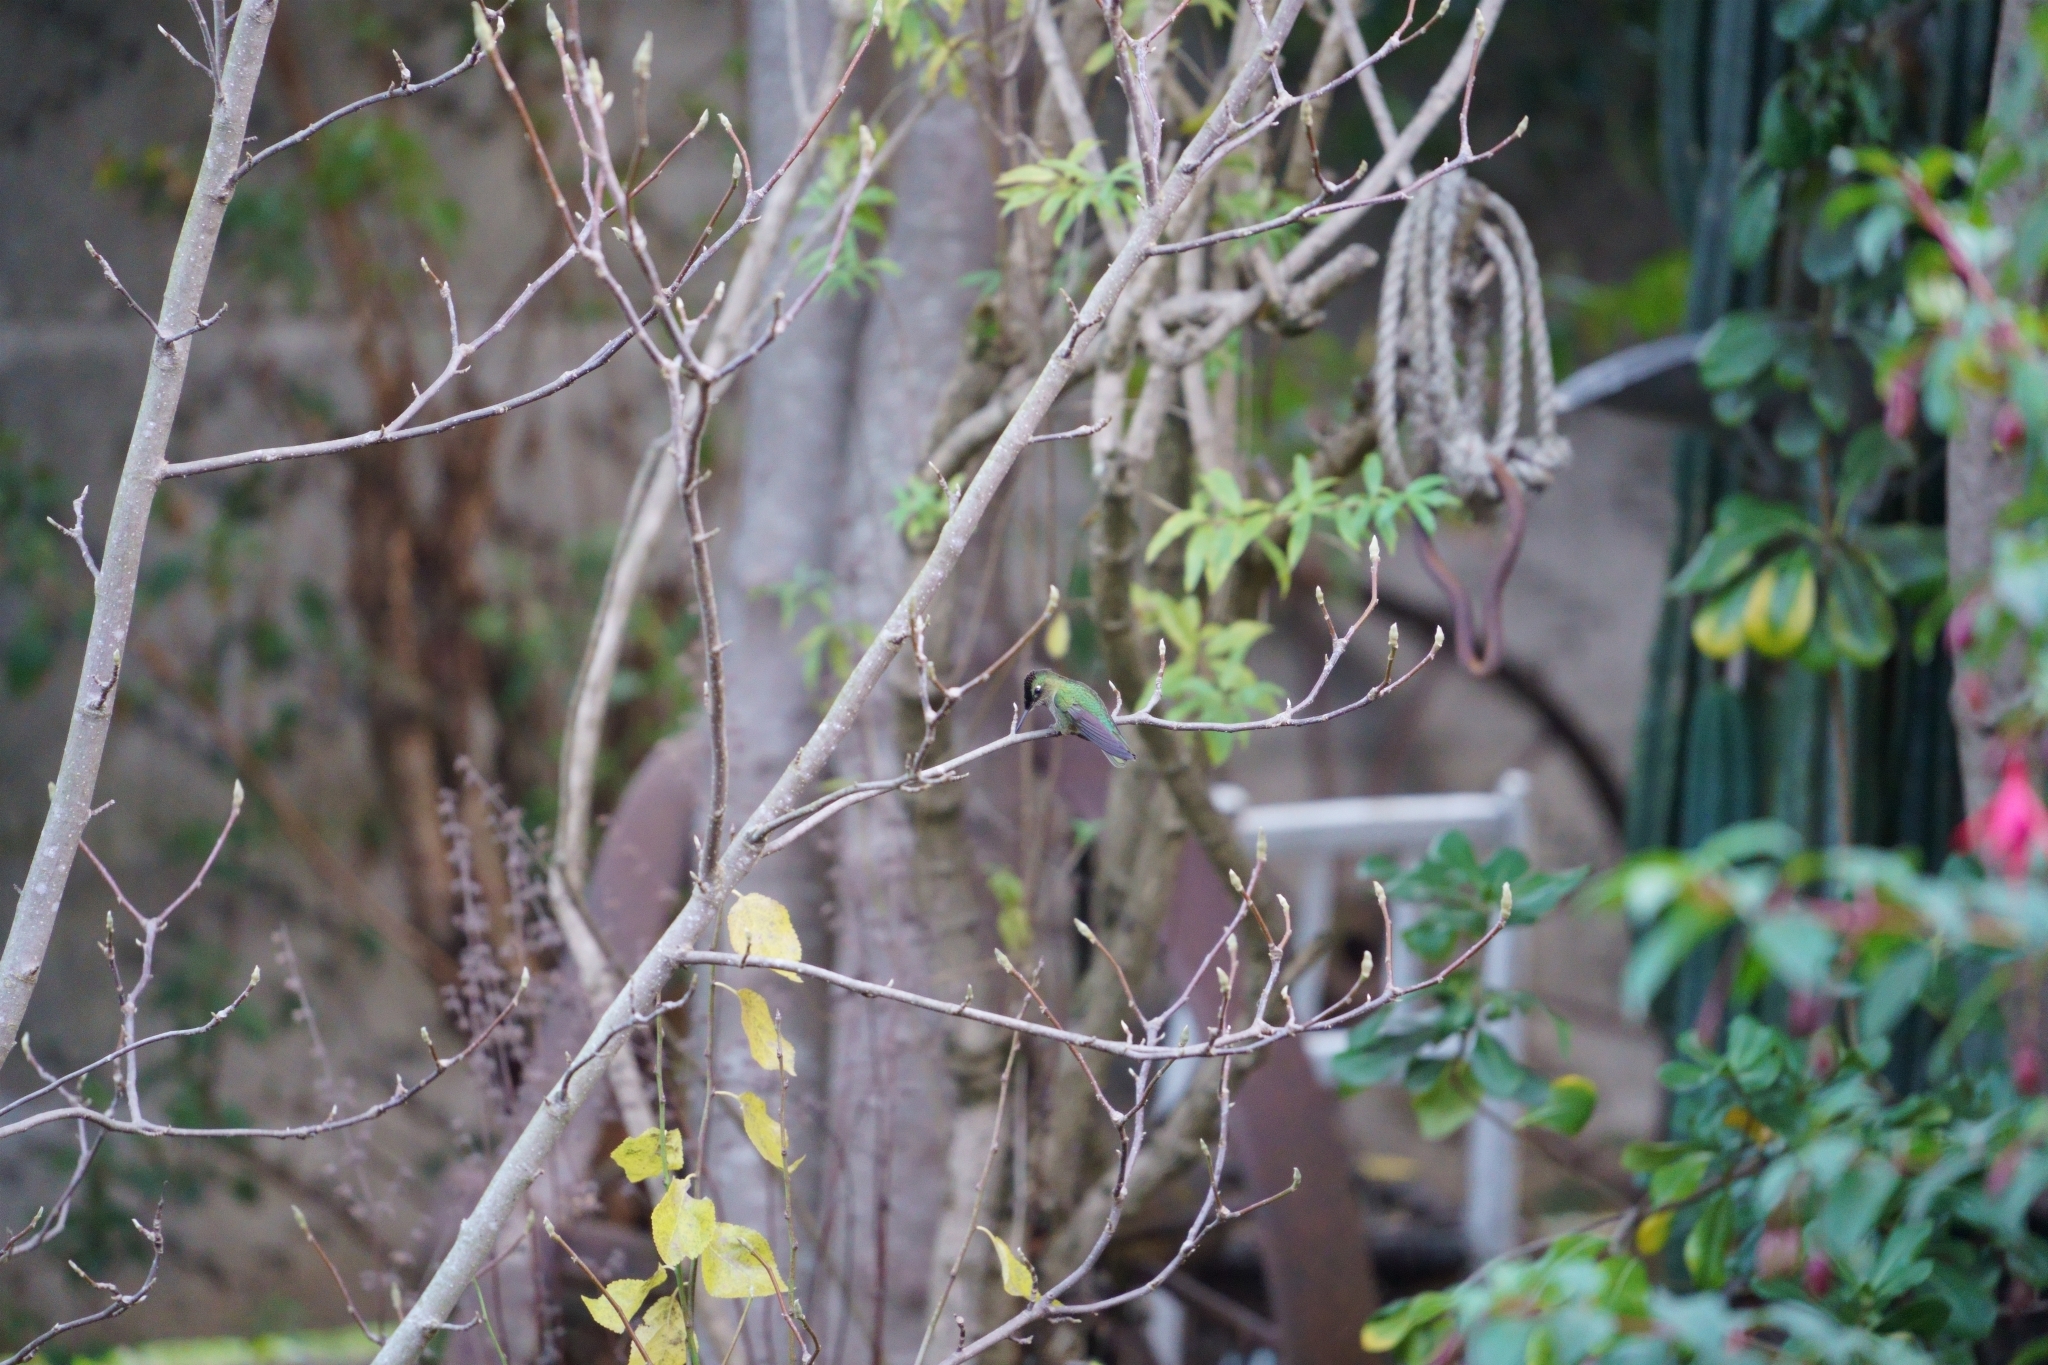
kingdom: Animalia
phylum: Chordata
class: Aves
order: Apodiformes
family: Trochilidae
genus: Sephanoides
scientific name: Sephanoides sephaniodes
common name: Green-backed firecrown
